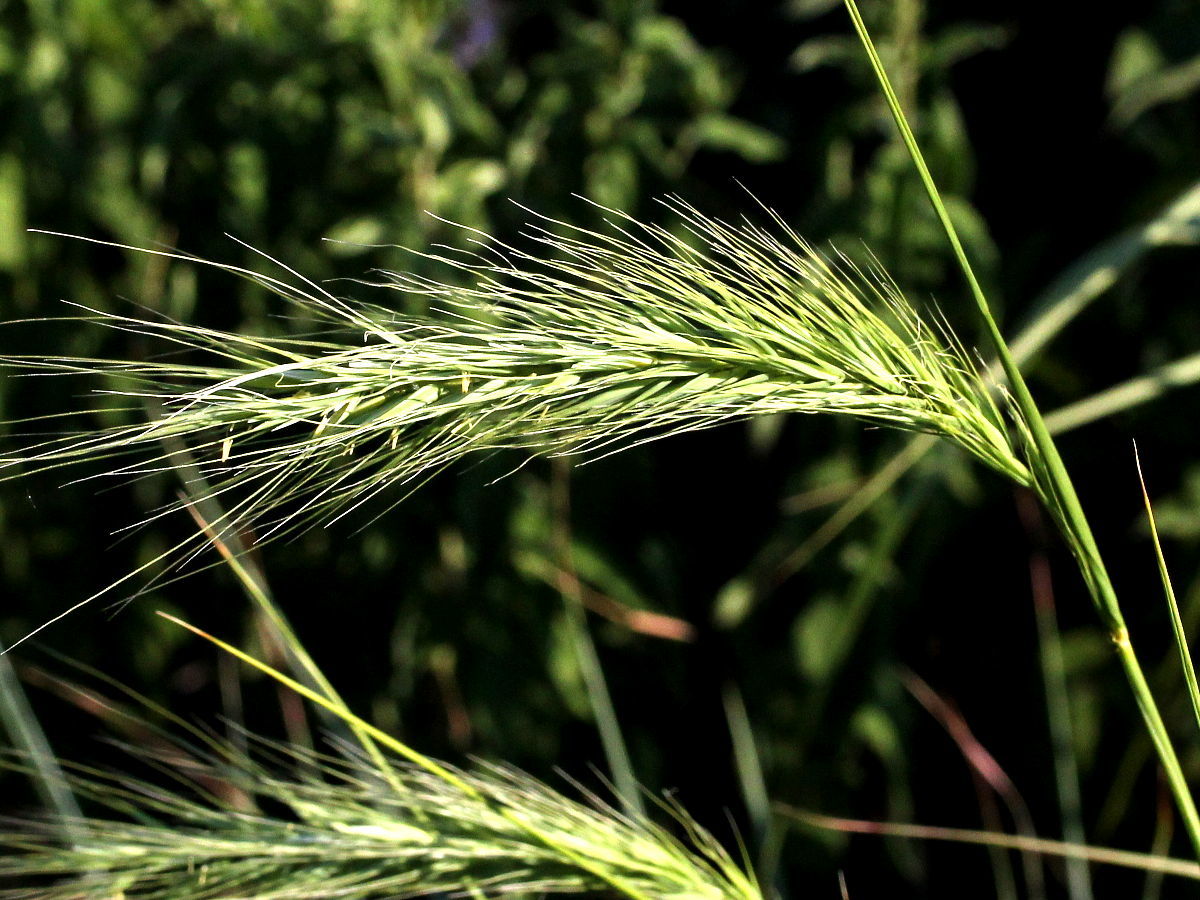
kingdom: Plantae
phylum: Tracheophyta
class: Liliopsida
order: Poales
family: Poaceae
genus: Elymus
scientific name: Elymus canadensis
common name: Canada wild rye
